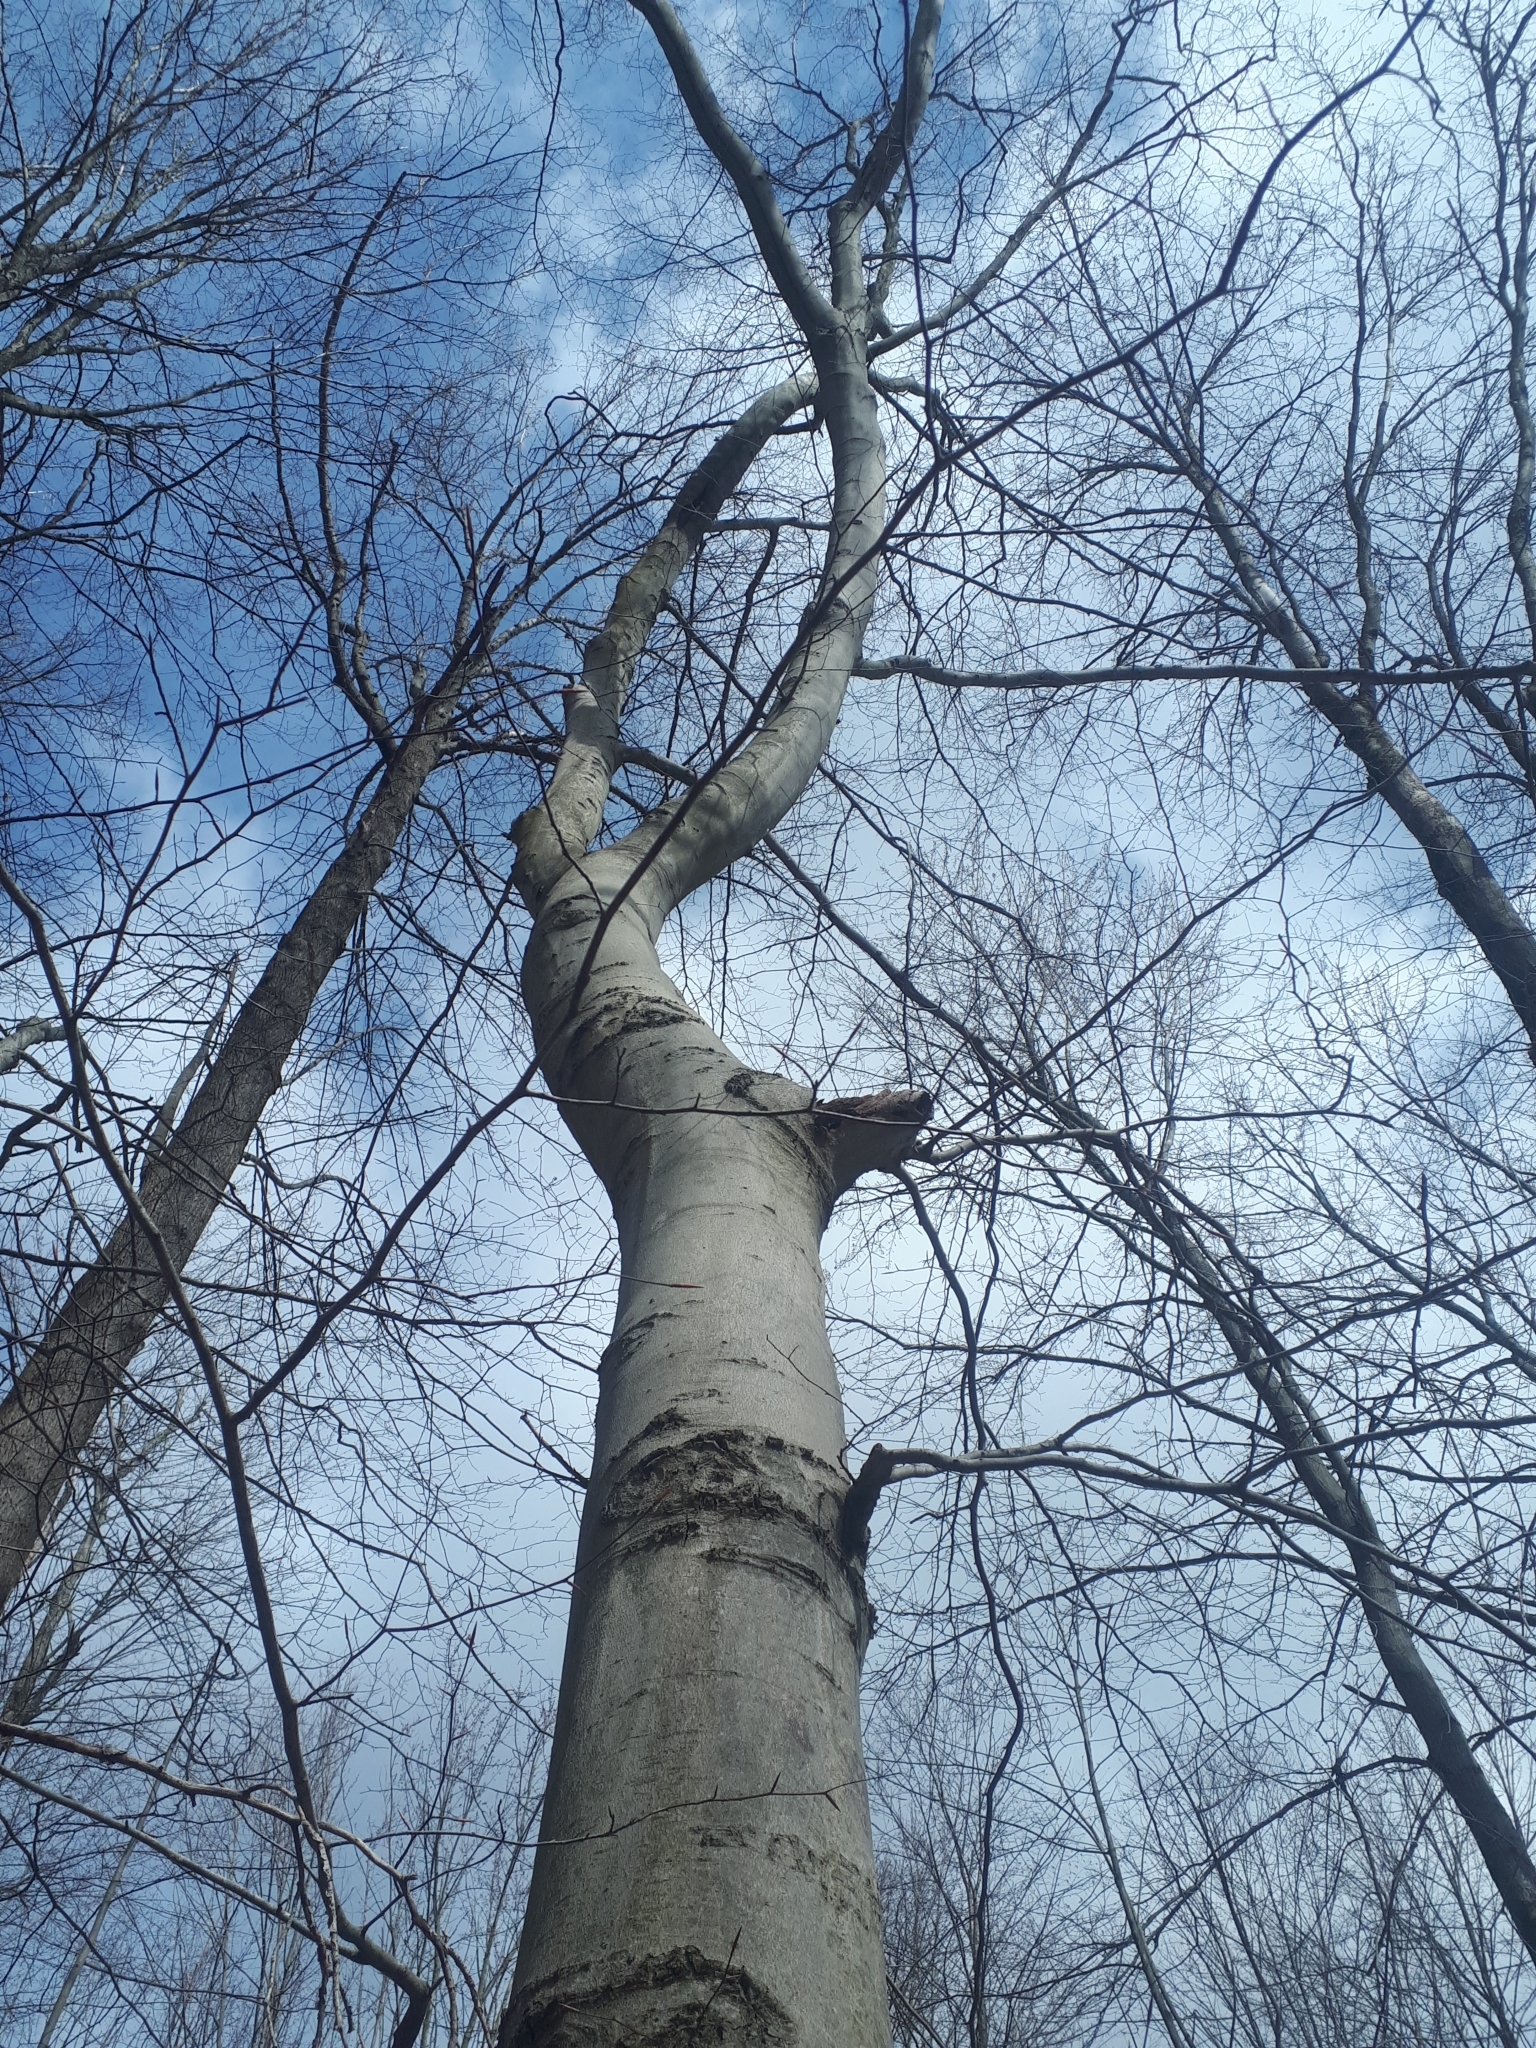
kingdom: Plantae
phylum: Tracheophyta
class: Magnoliopsida
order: Fagales
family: Fagaceae
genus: Fagus
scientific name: Fagus grandifolia
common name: American beech
